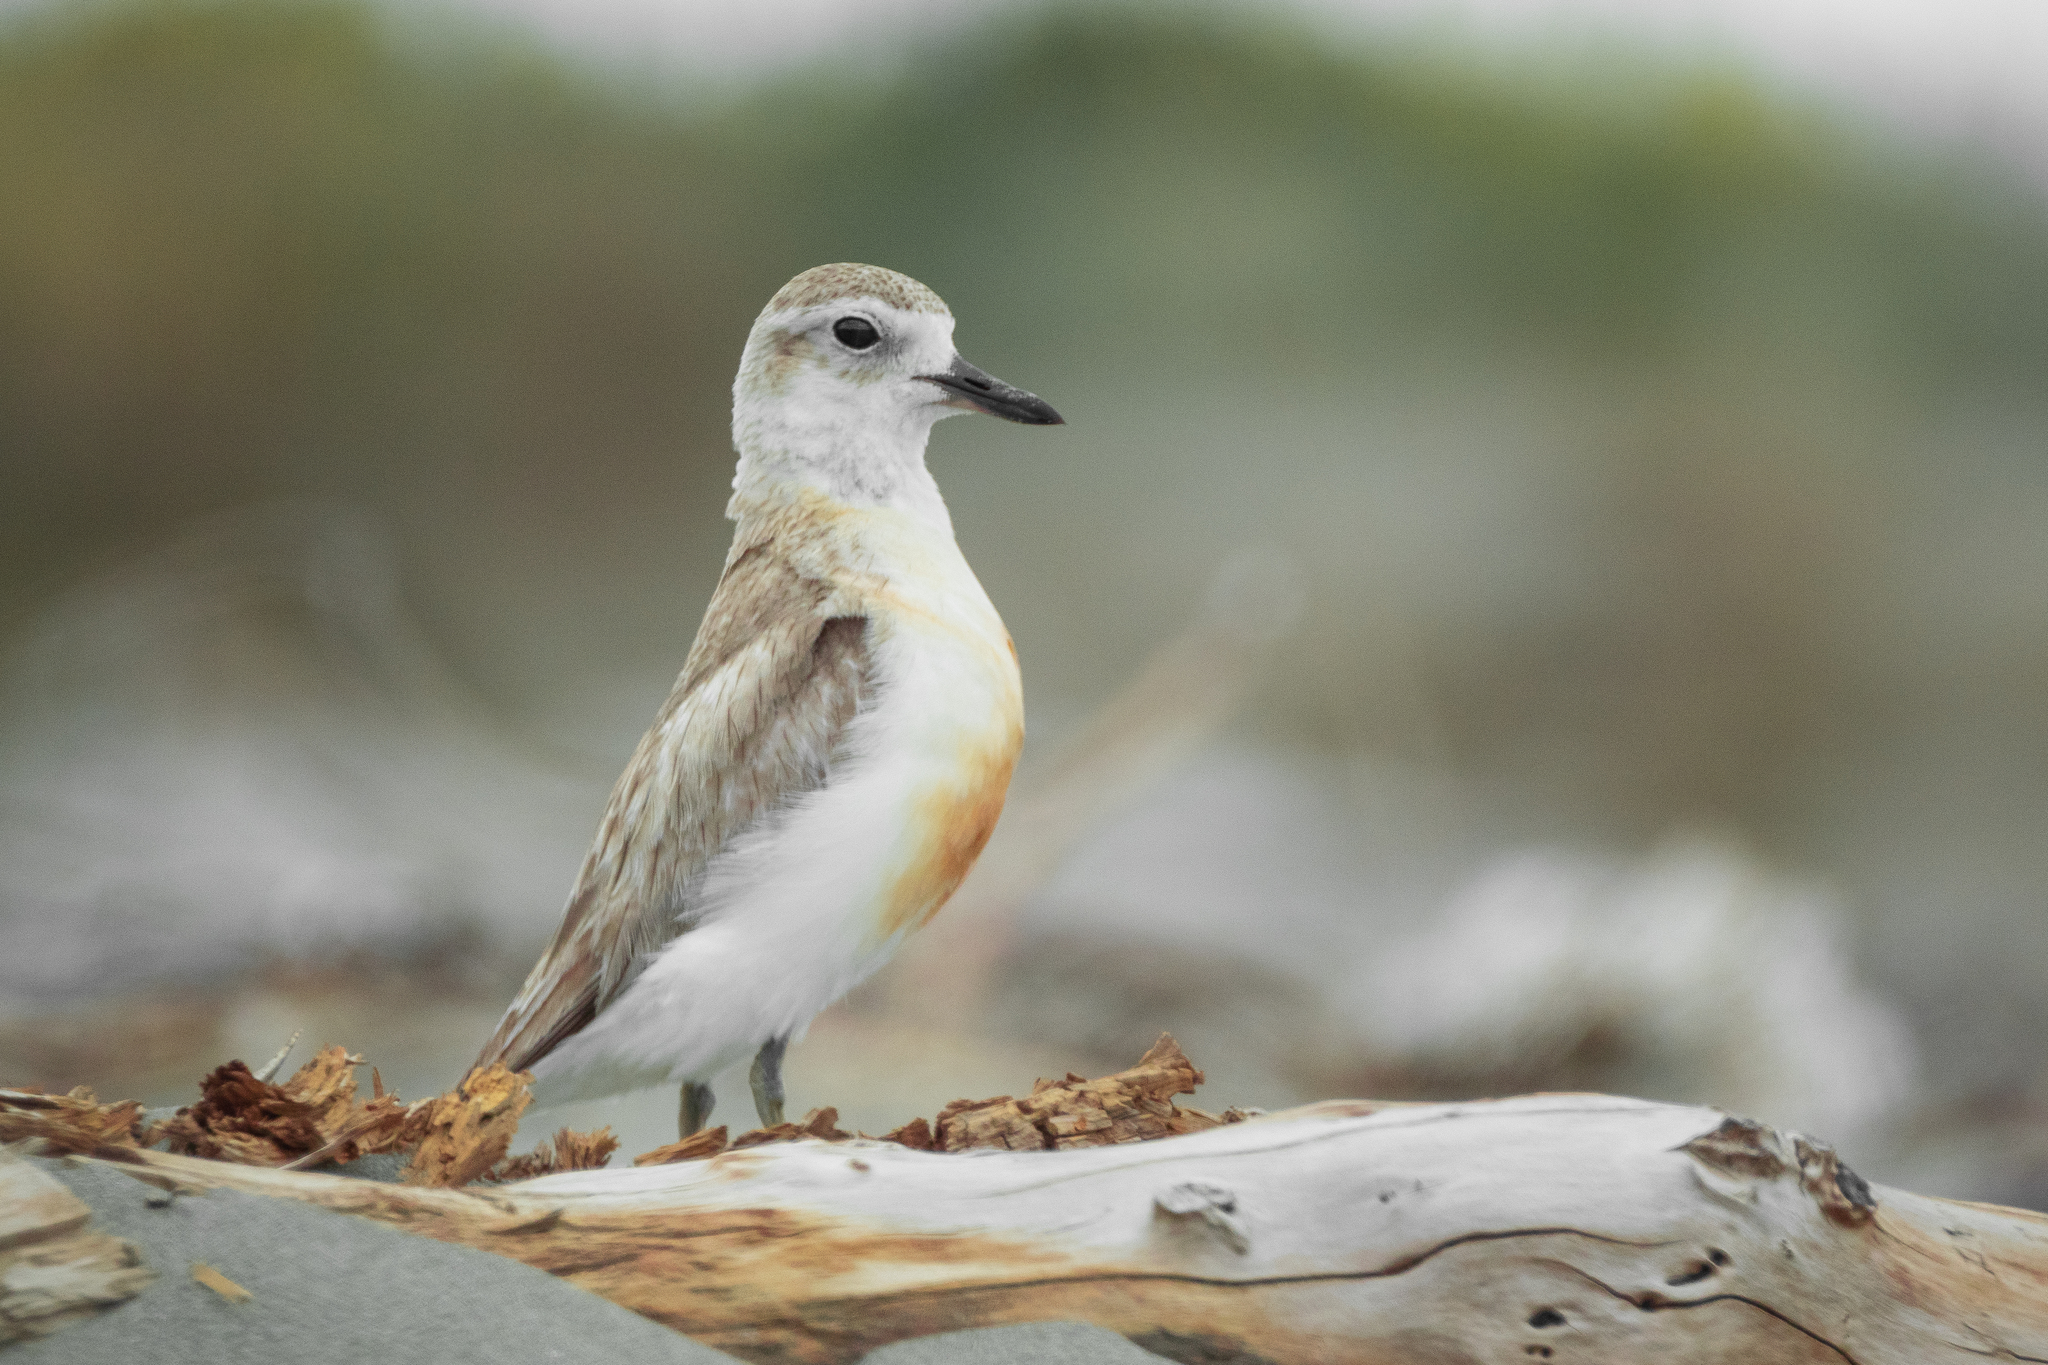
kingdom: Animalia
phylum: Chordata
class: Aves
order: Charadriiformes
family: Charadriidae
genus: Anarhynchus
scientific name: Anarhynchus
